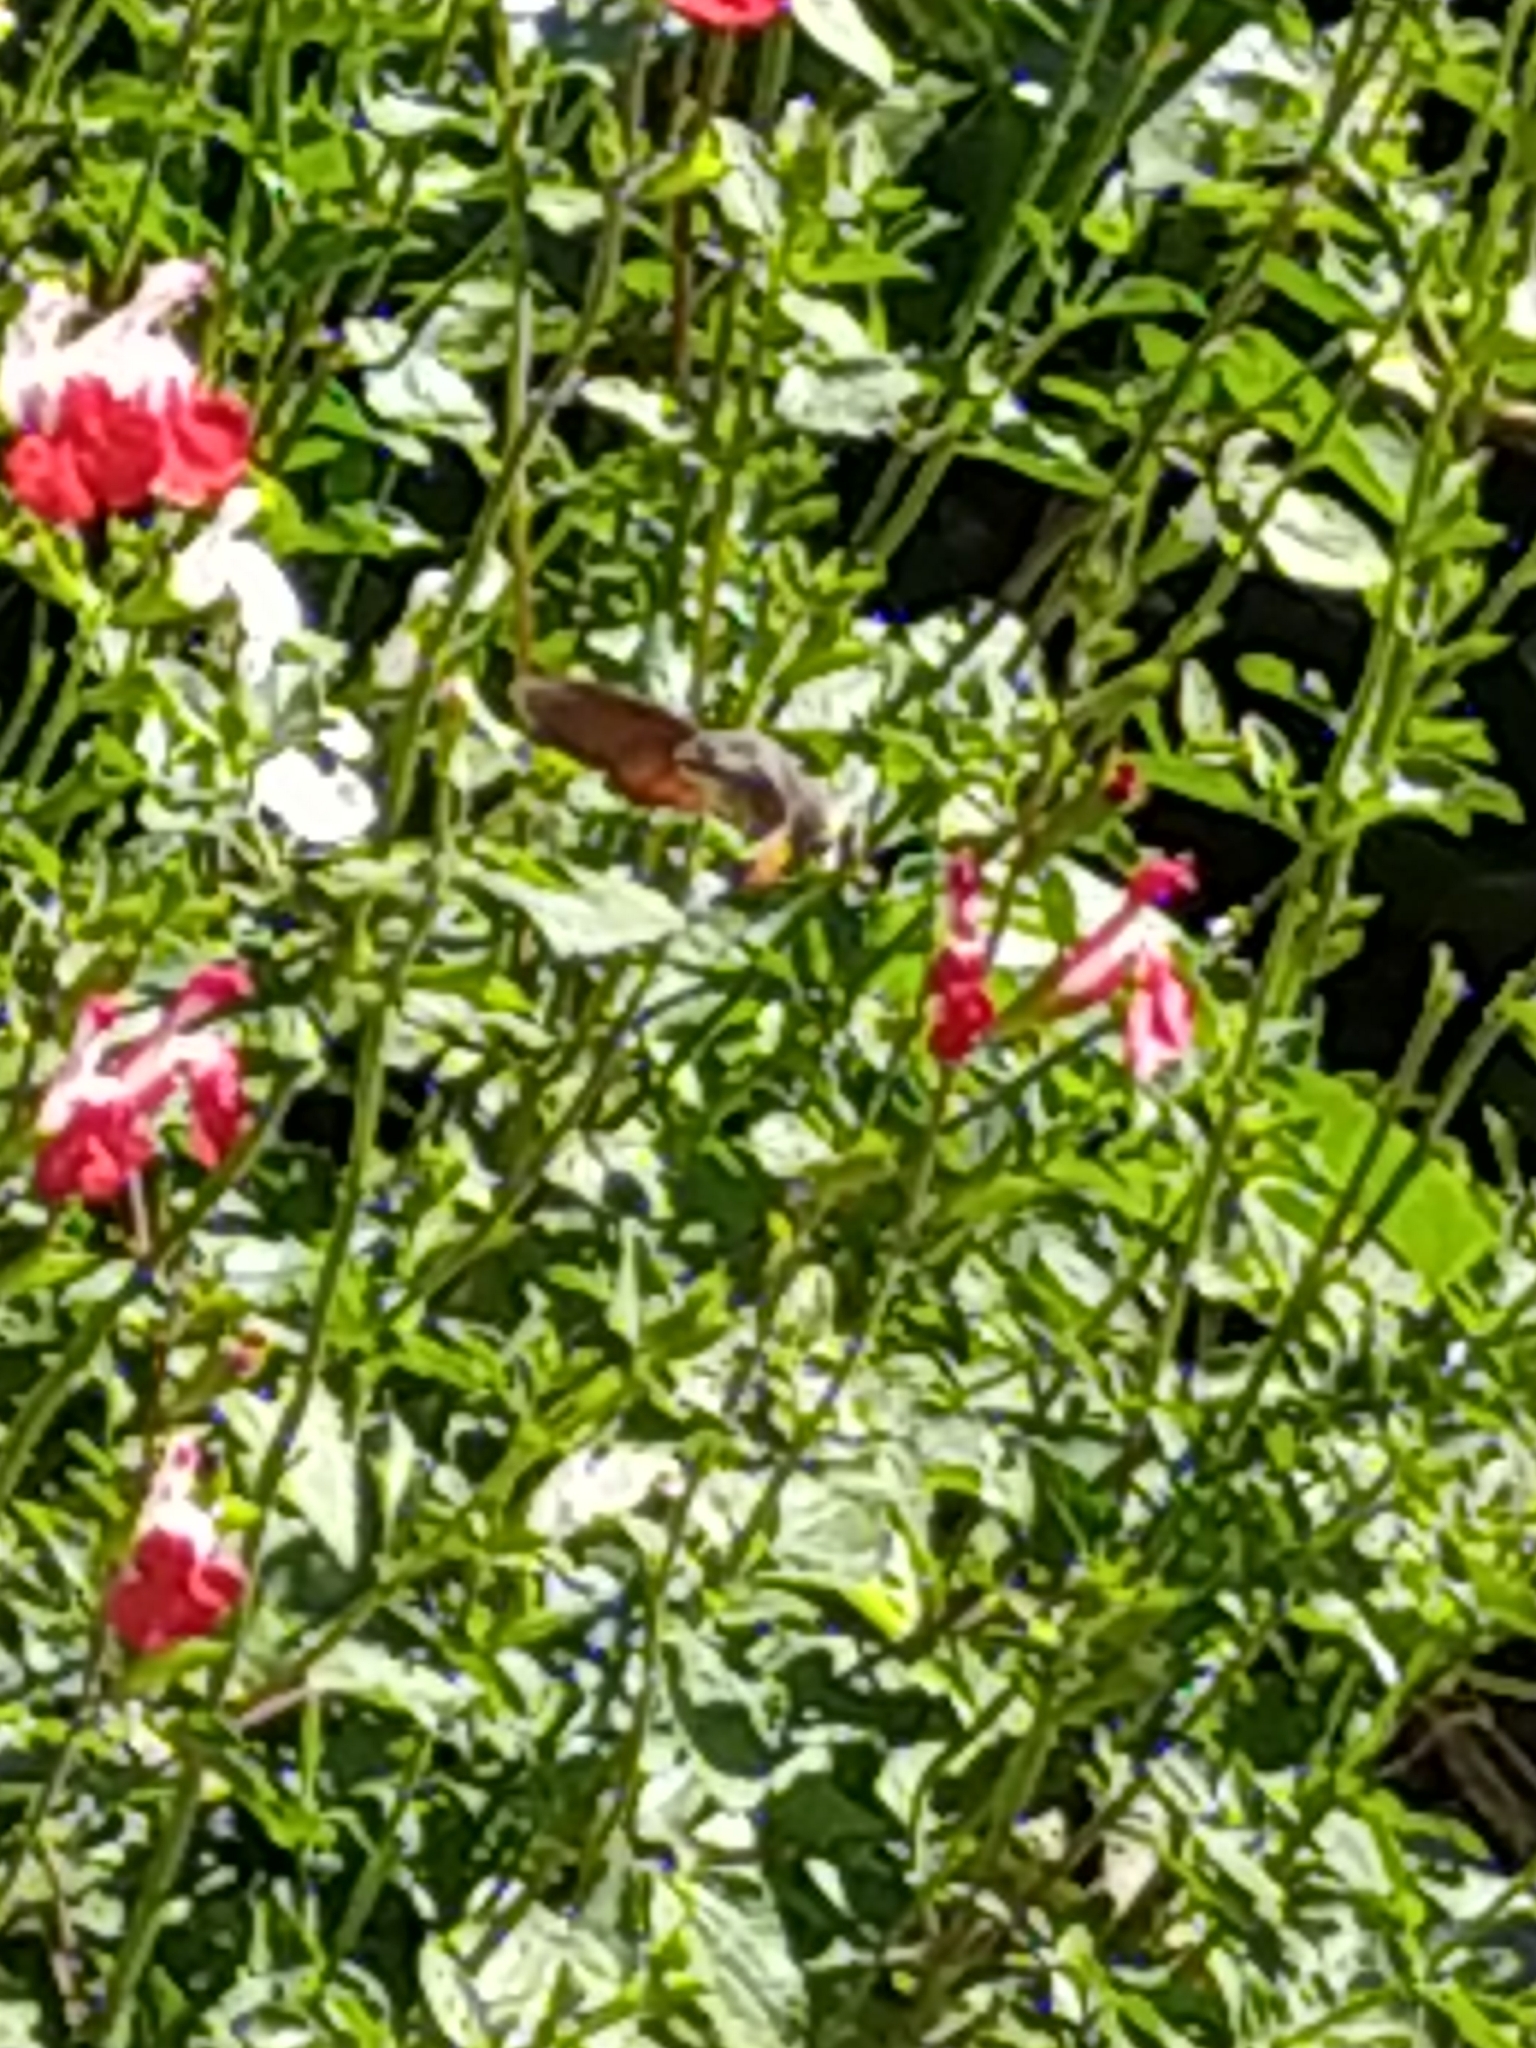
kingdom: Animalia
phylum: Arthropoda
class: Insecta
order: Lepidoptera
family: Sphingidae
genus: Macroglossum
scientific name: Macroglossum stellatarum
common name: Humming-bird hawk-moth
